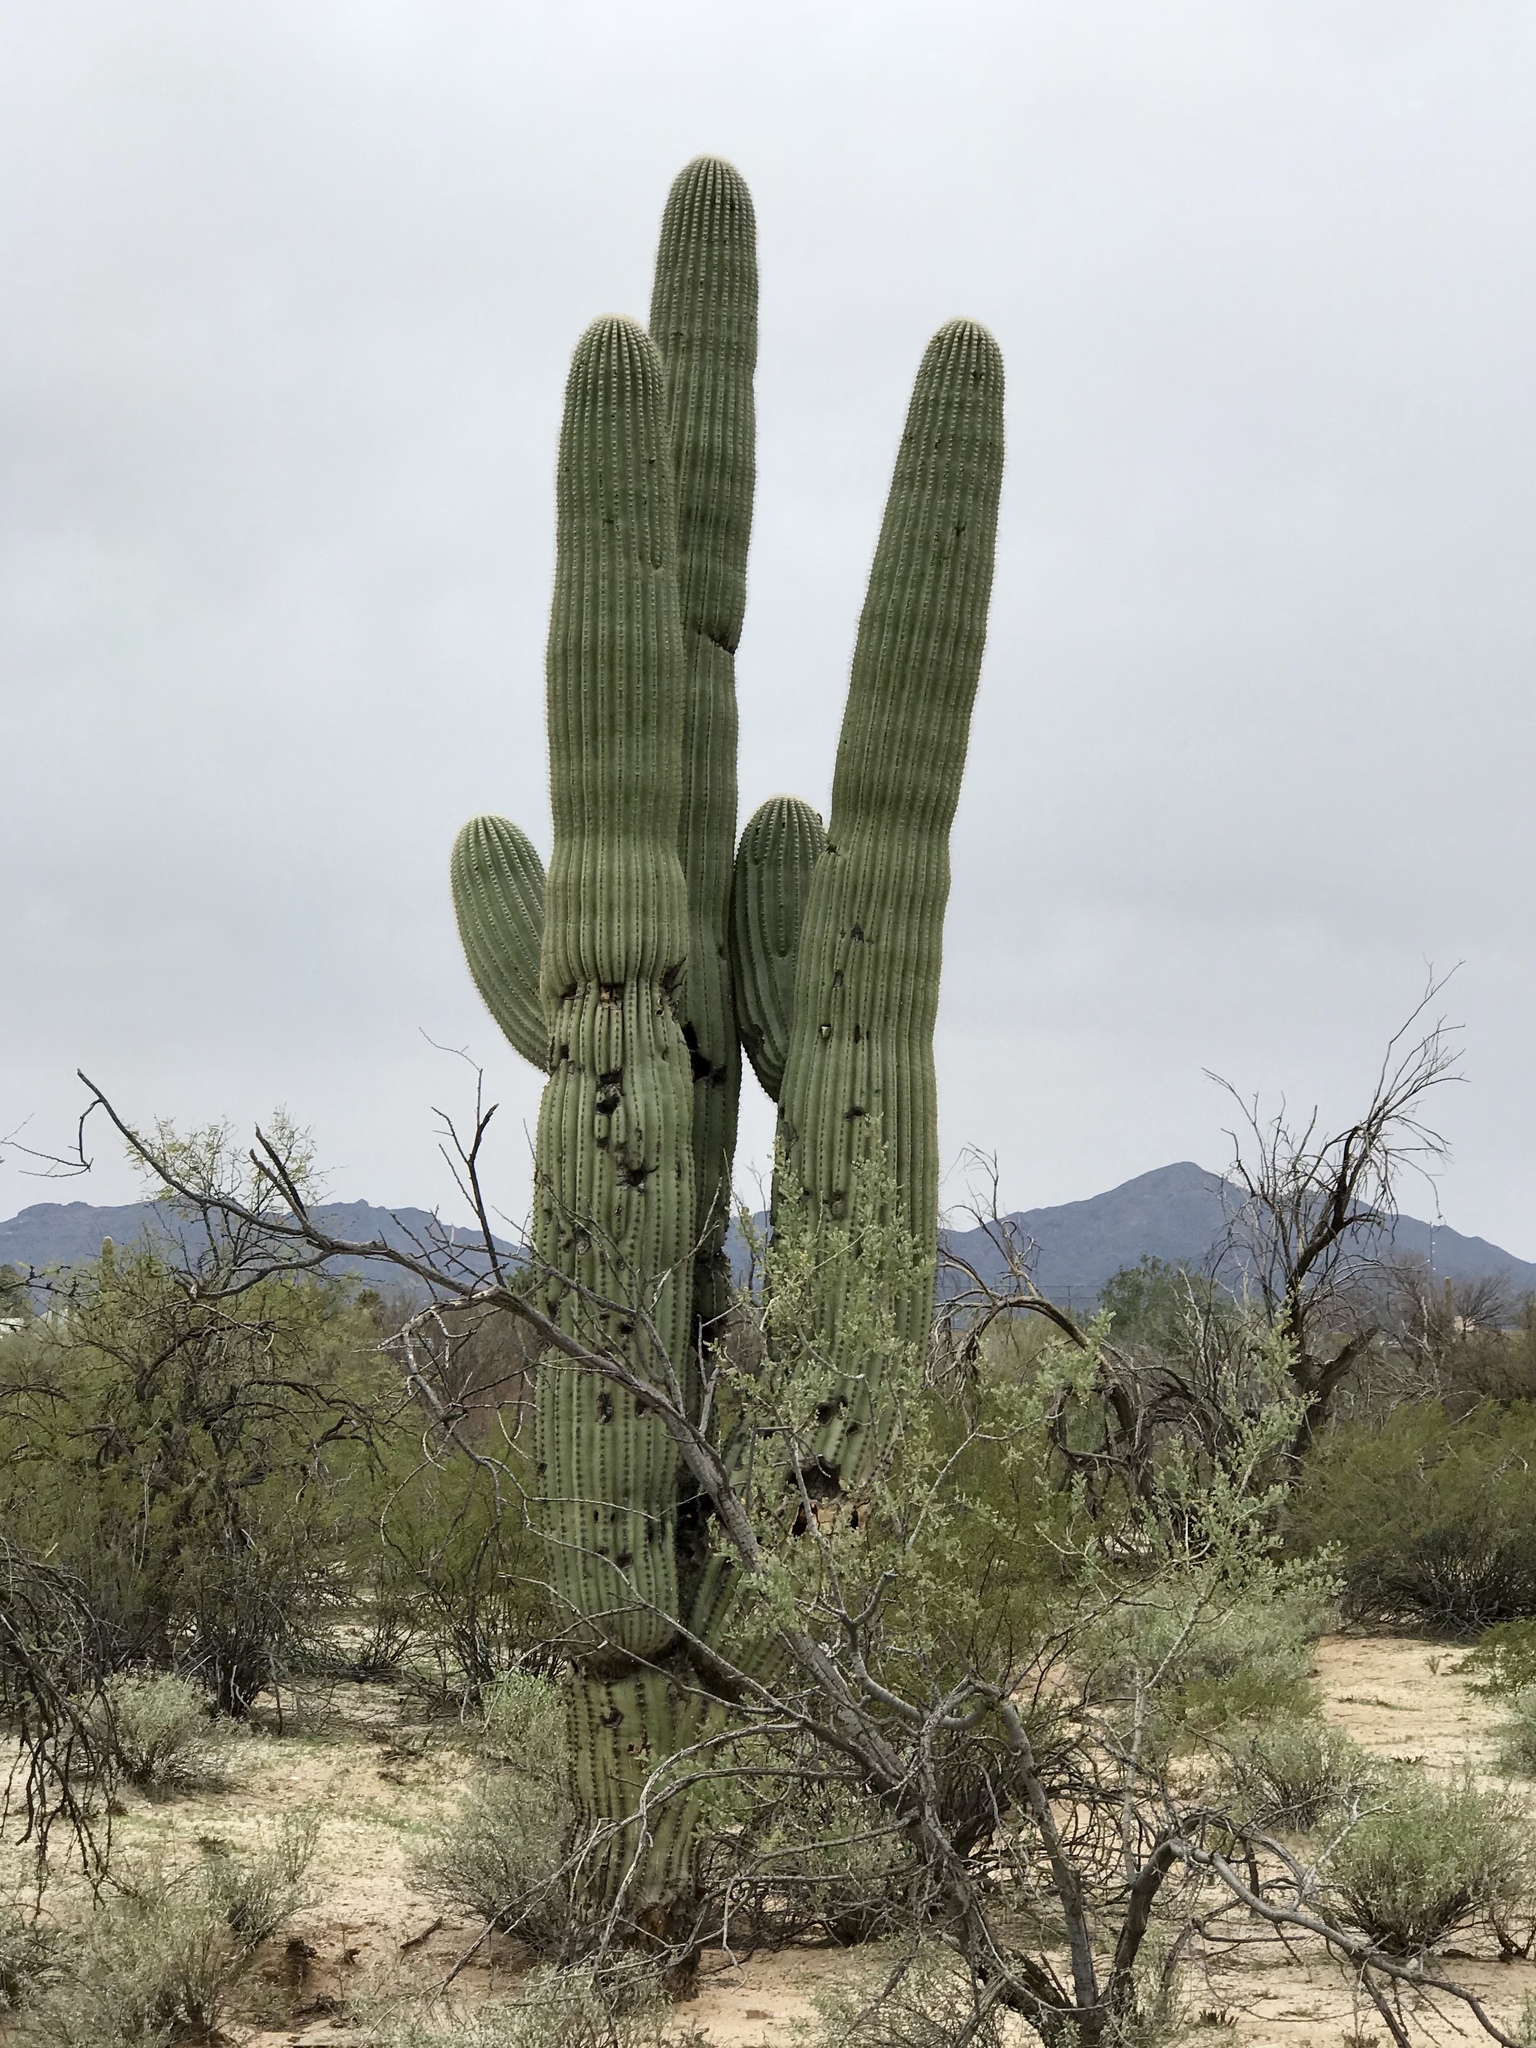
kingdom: Plantae
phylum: Tracheophyta
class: Magnoliopsida
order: Caryophyllales
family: Cactaceae
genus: Carnegiea
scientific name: Carnegiea gigantea
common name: Saguaro
